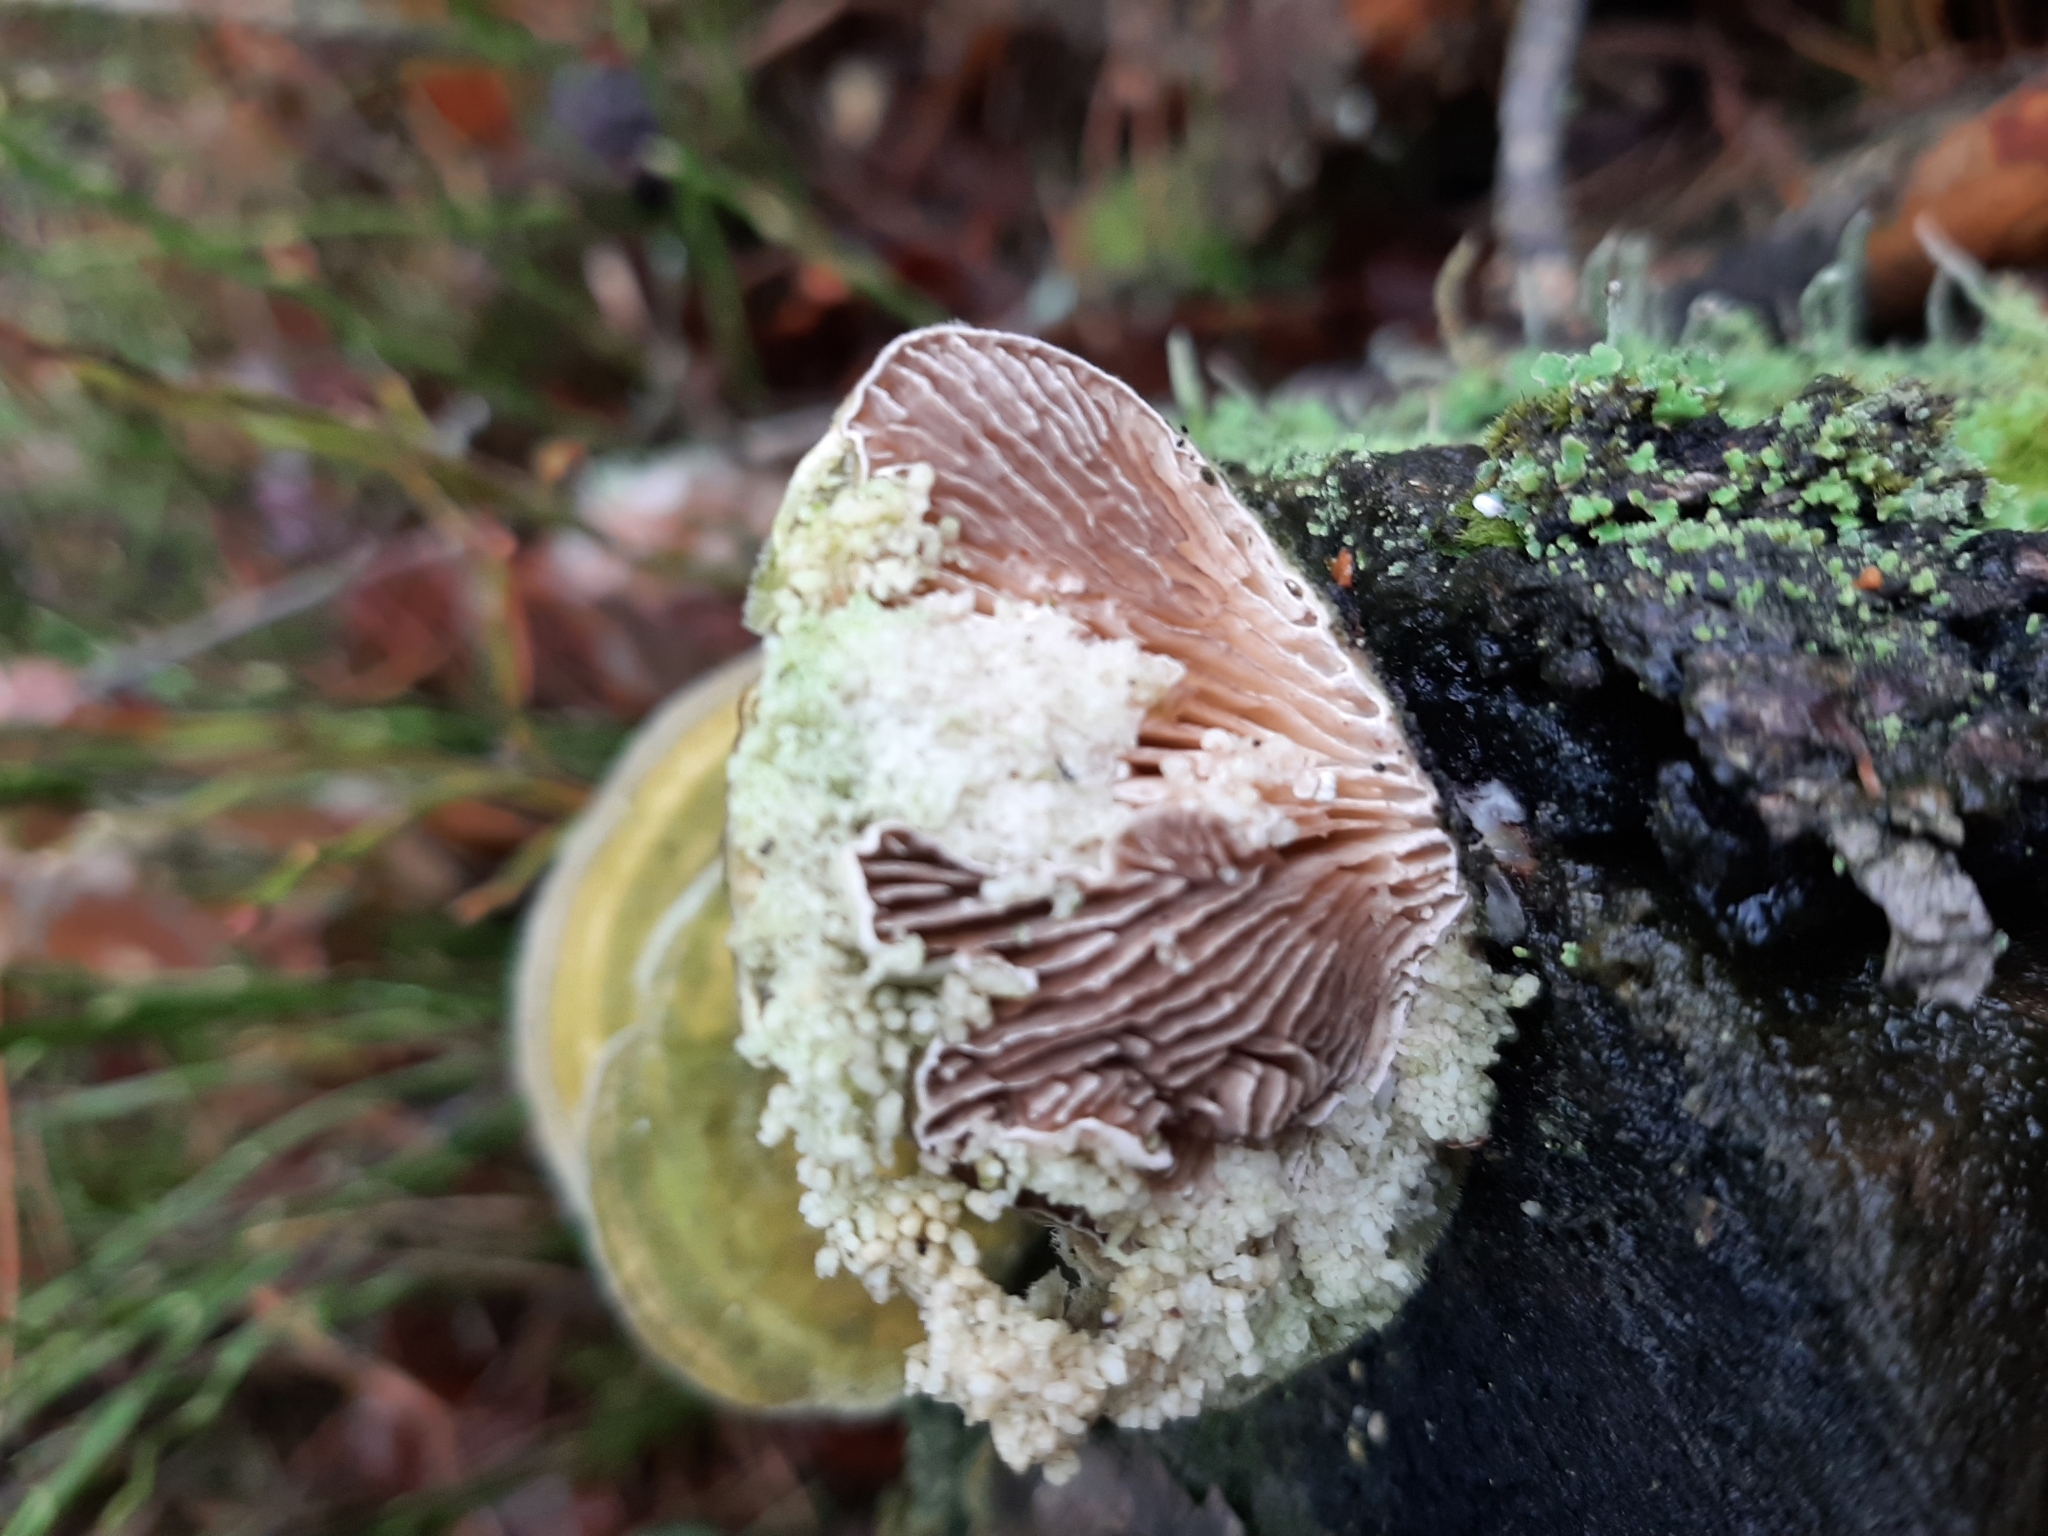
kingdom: Fungi
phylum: Basidiomycota
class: Agaricomycetes
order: Polyporales
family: Polyporaceae
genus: Lenzites
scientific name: Lenzites betulinus
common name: Birch mazegill
